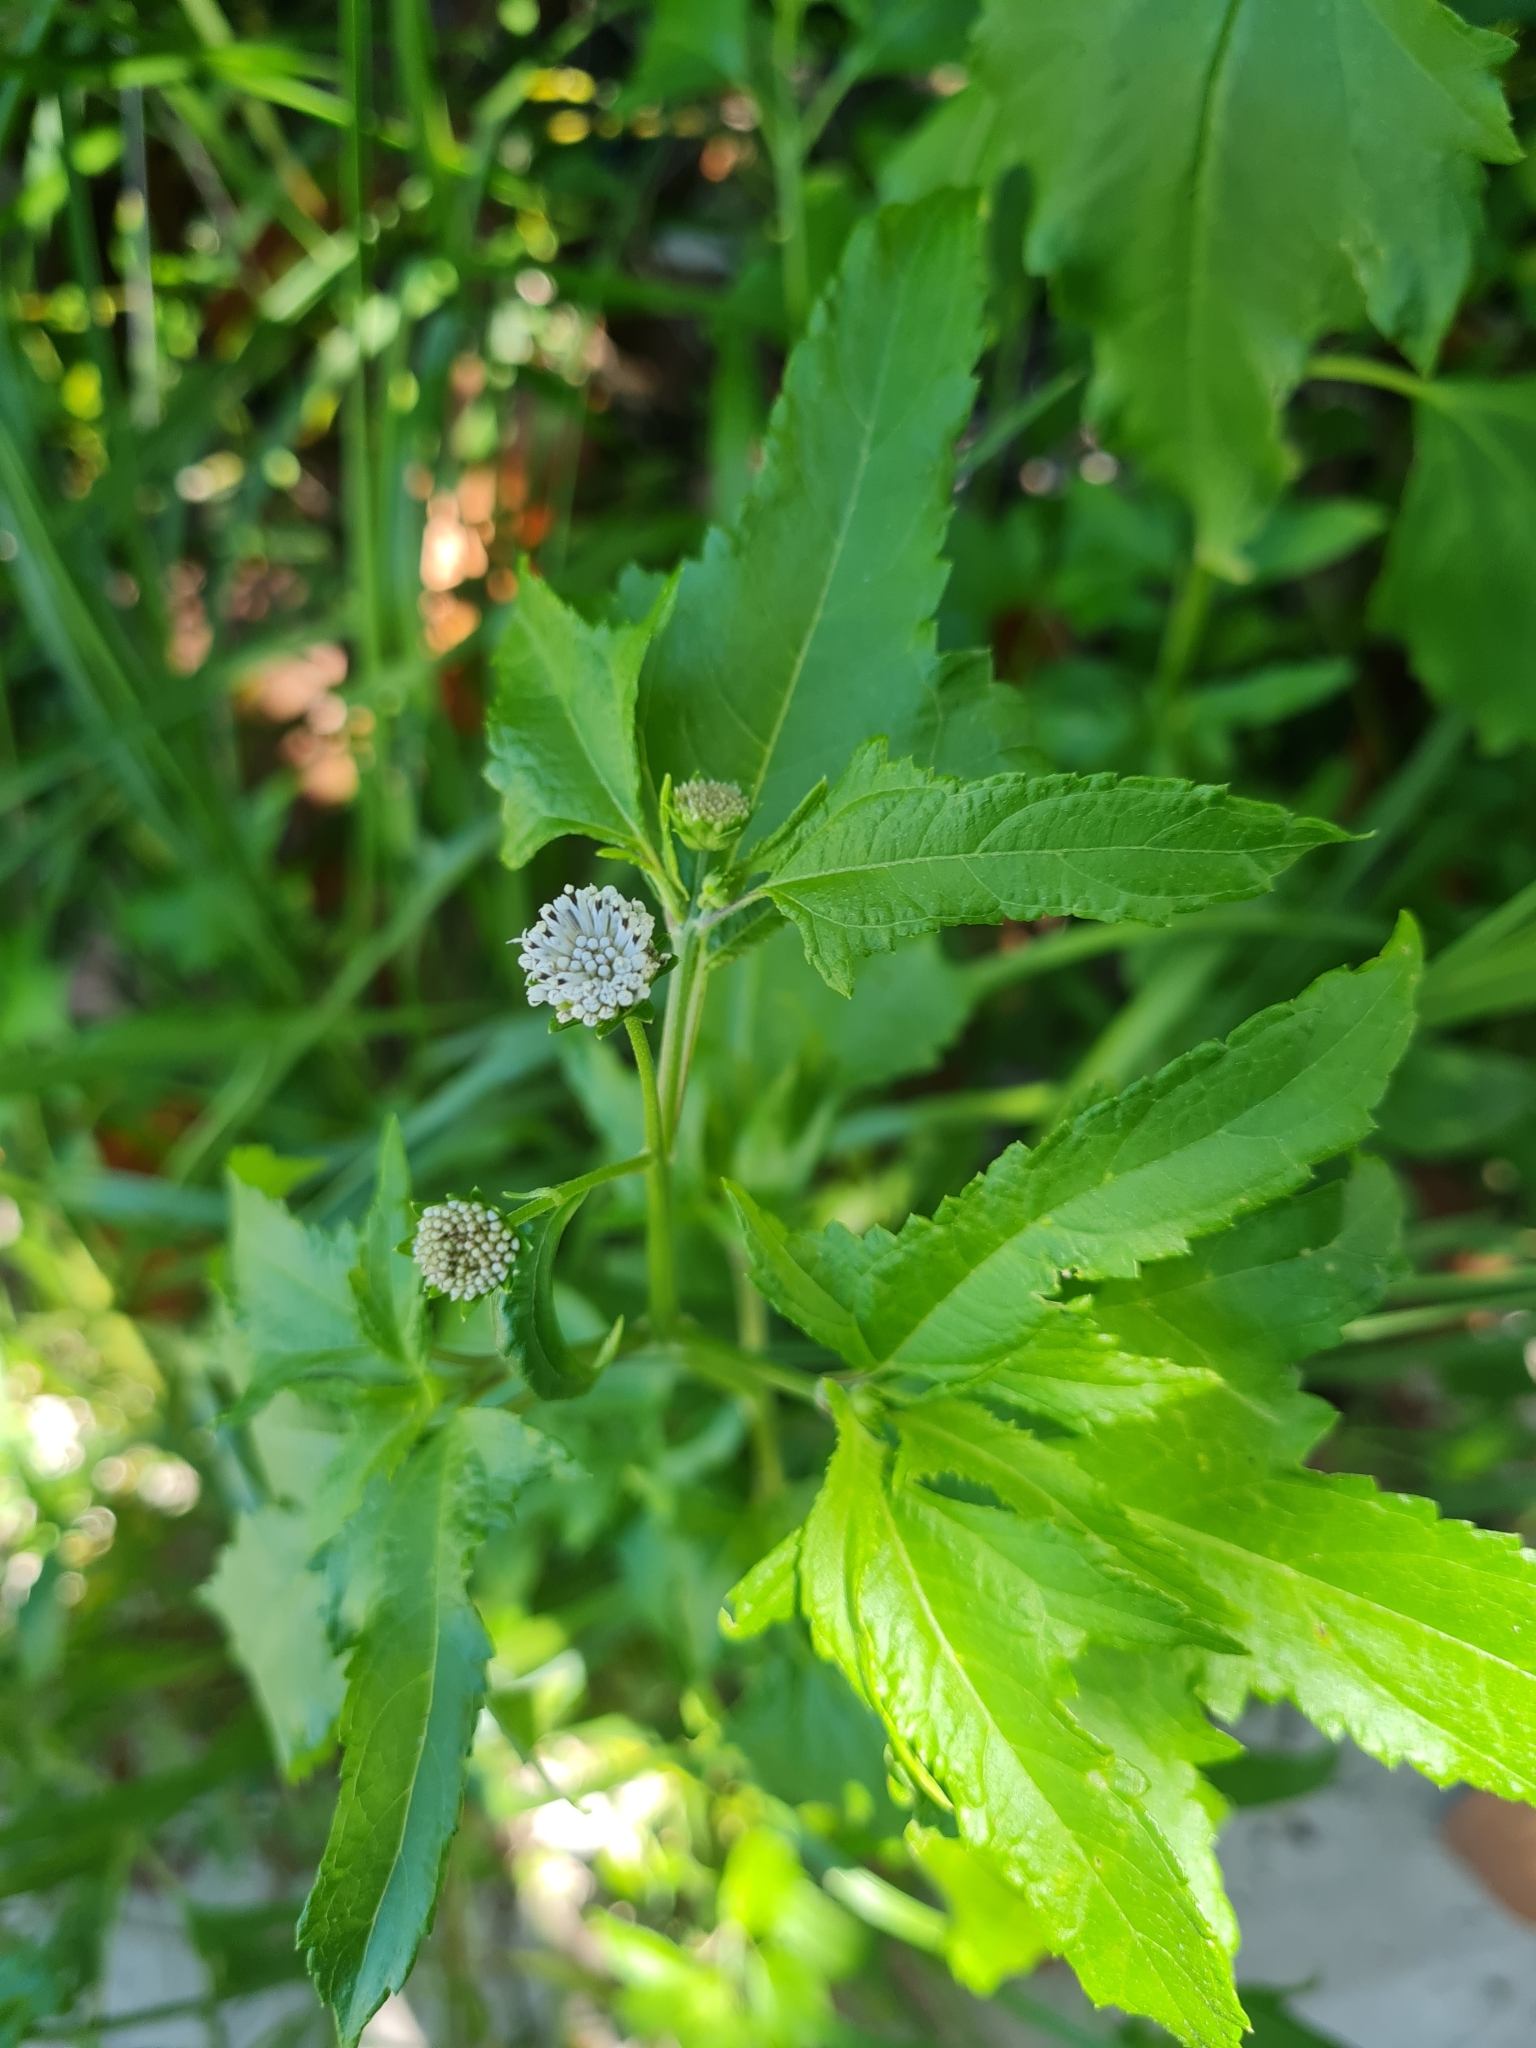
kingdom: Plantae
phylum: Tracheophyta
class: Magnoliopsida
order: Asterales
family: Asteraceae
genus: Melanthera
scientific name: Melanthera nivea
